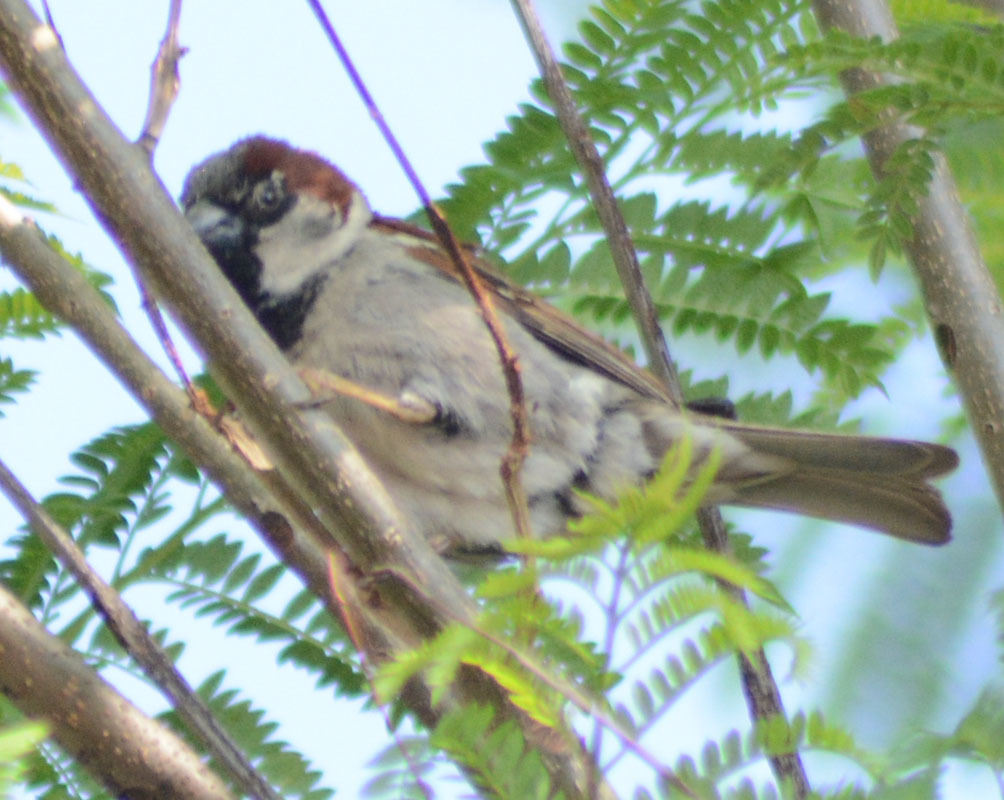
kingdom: Animalia
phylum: Chordata
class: Aves
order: Passeriformes
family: Passeridae
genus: Passer
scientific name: Passer domesticus
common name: House sparrow
